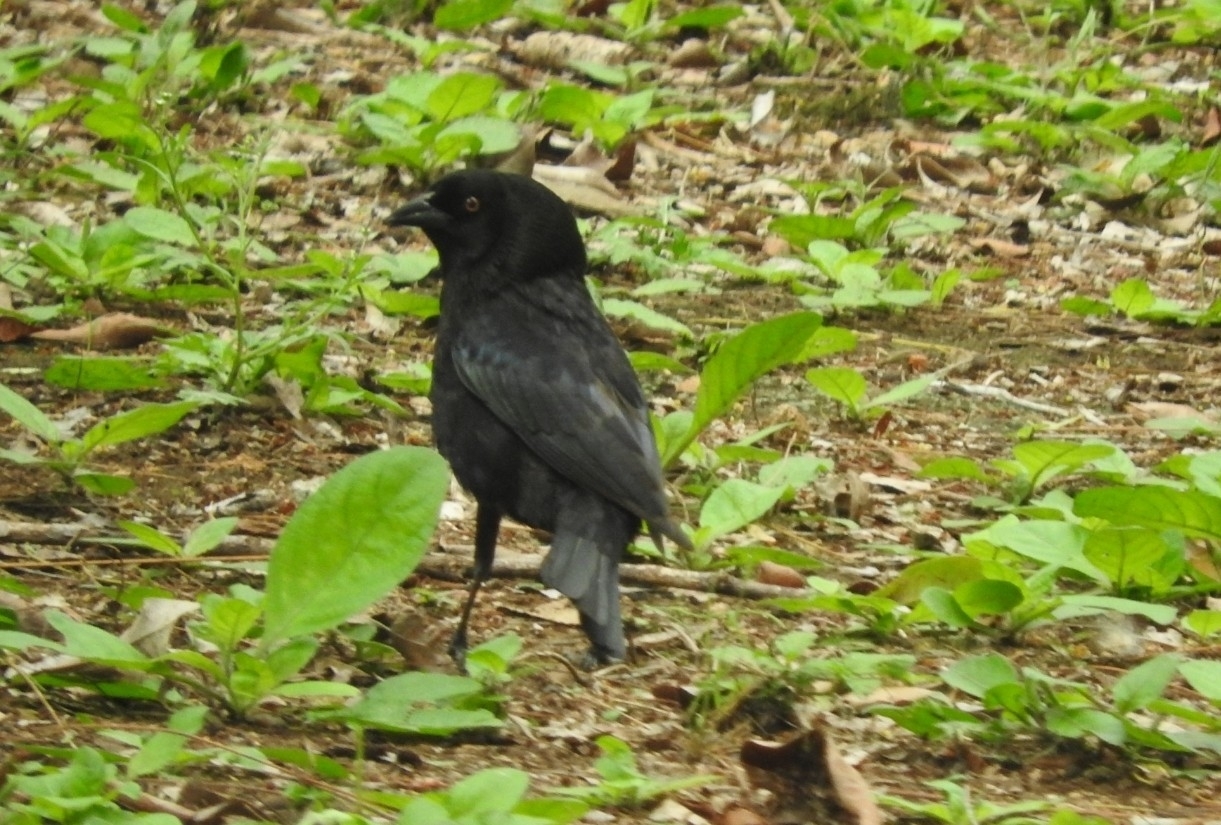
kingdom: Animalia
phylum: Chordata
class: Aves
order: Passeriformes
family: Icteridae
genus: Molothrus
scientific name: Molothrus aeneus
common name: Bronzed cowbird
